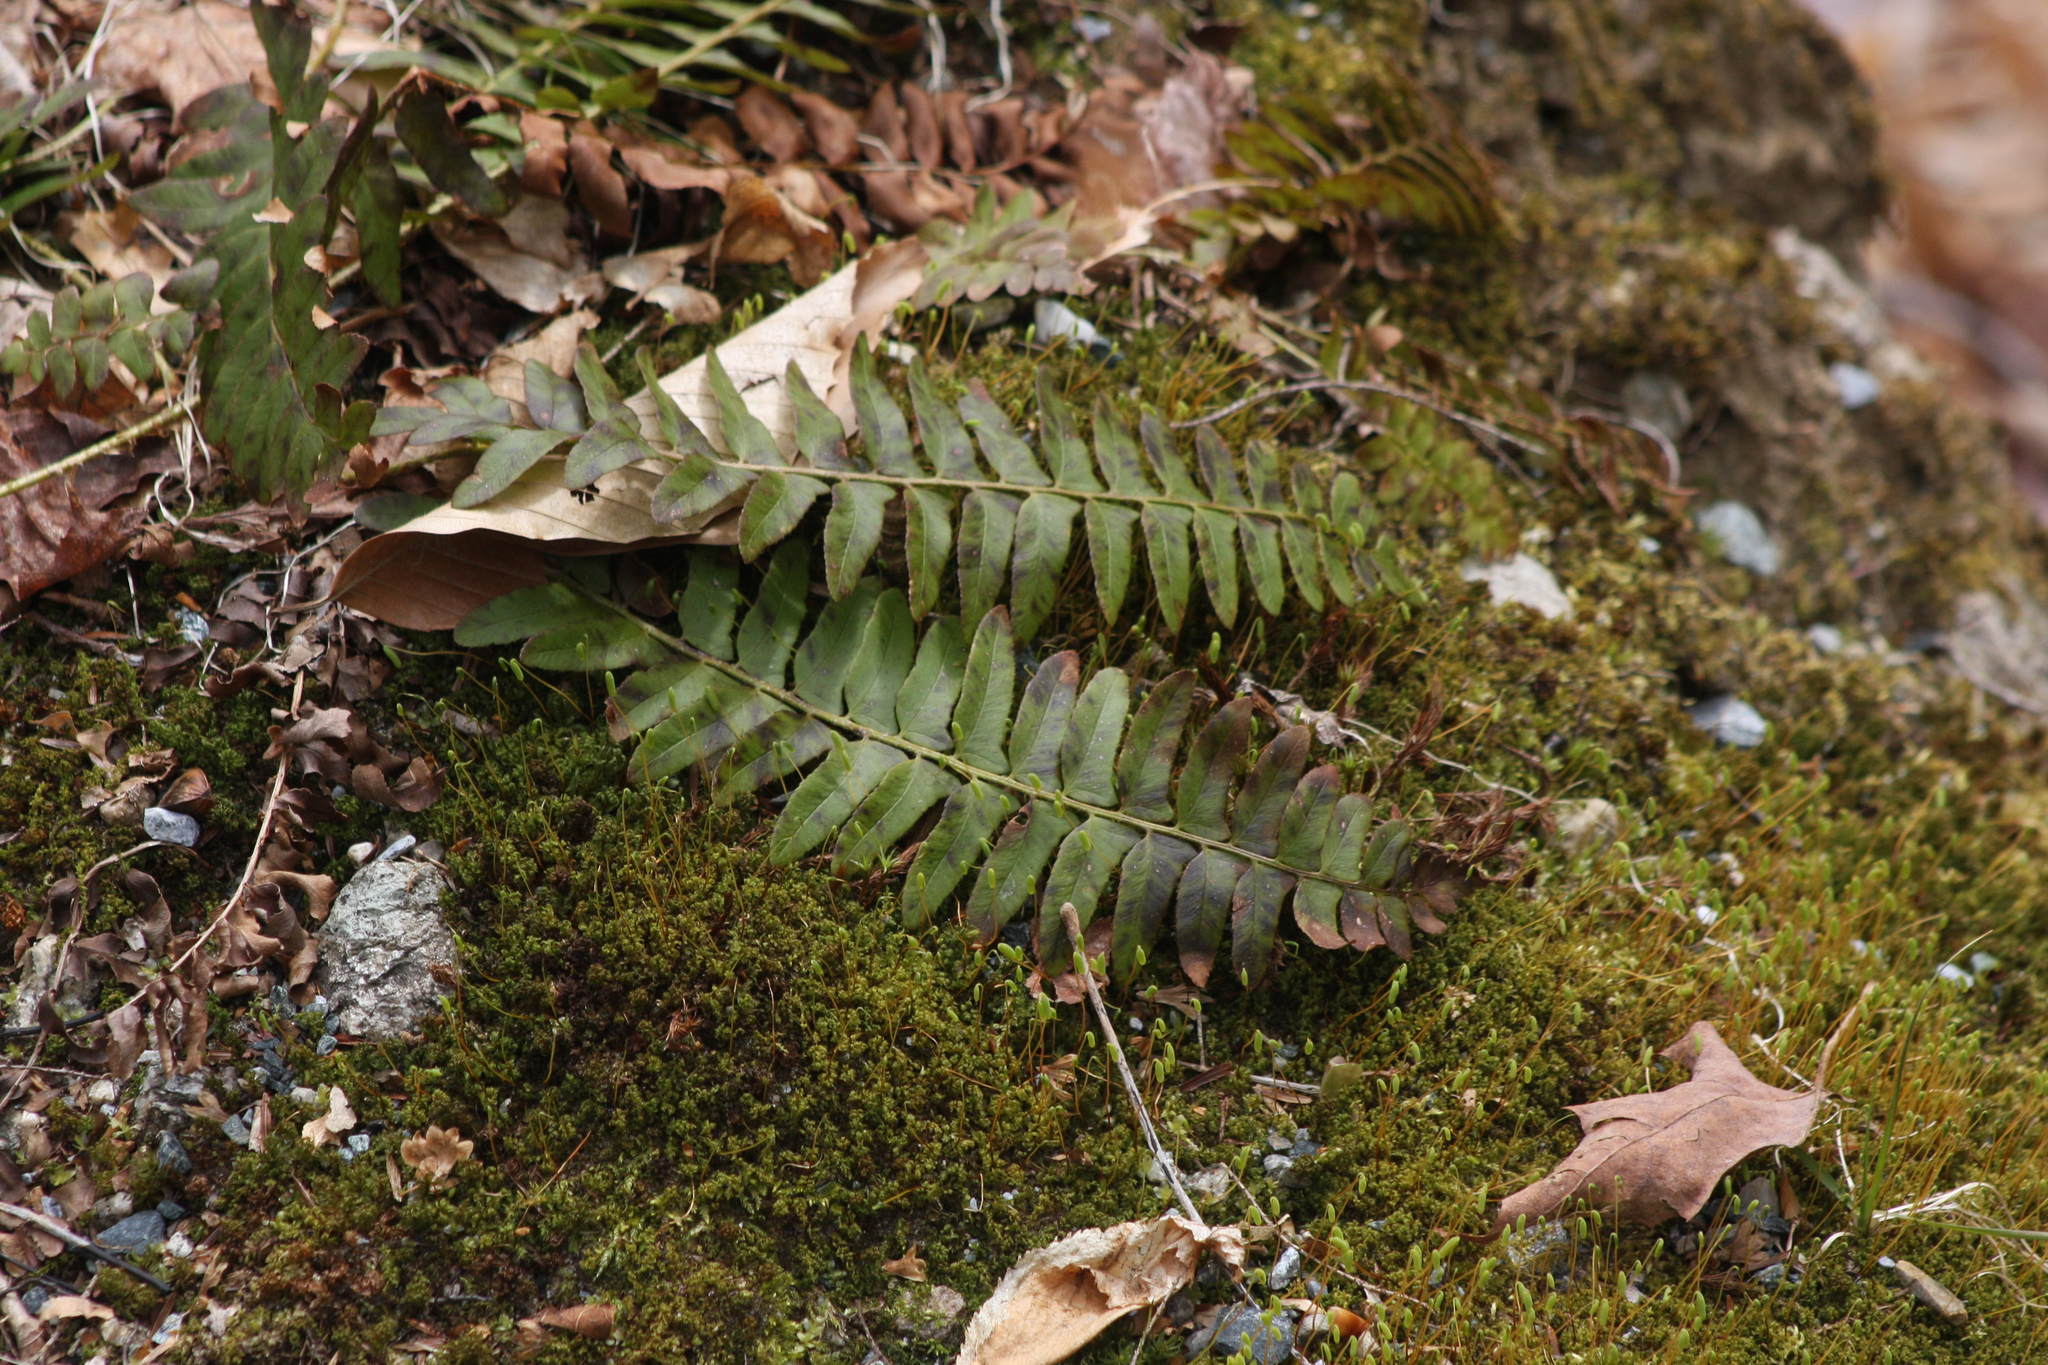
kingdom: Plantae
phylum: Tracheophyta
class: Polypodiopsida
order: Polypodiales
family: Dryopteridaceae
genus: Polystichum
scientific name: Polystichum acrostichoides
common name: Christmas fern
